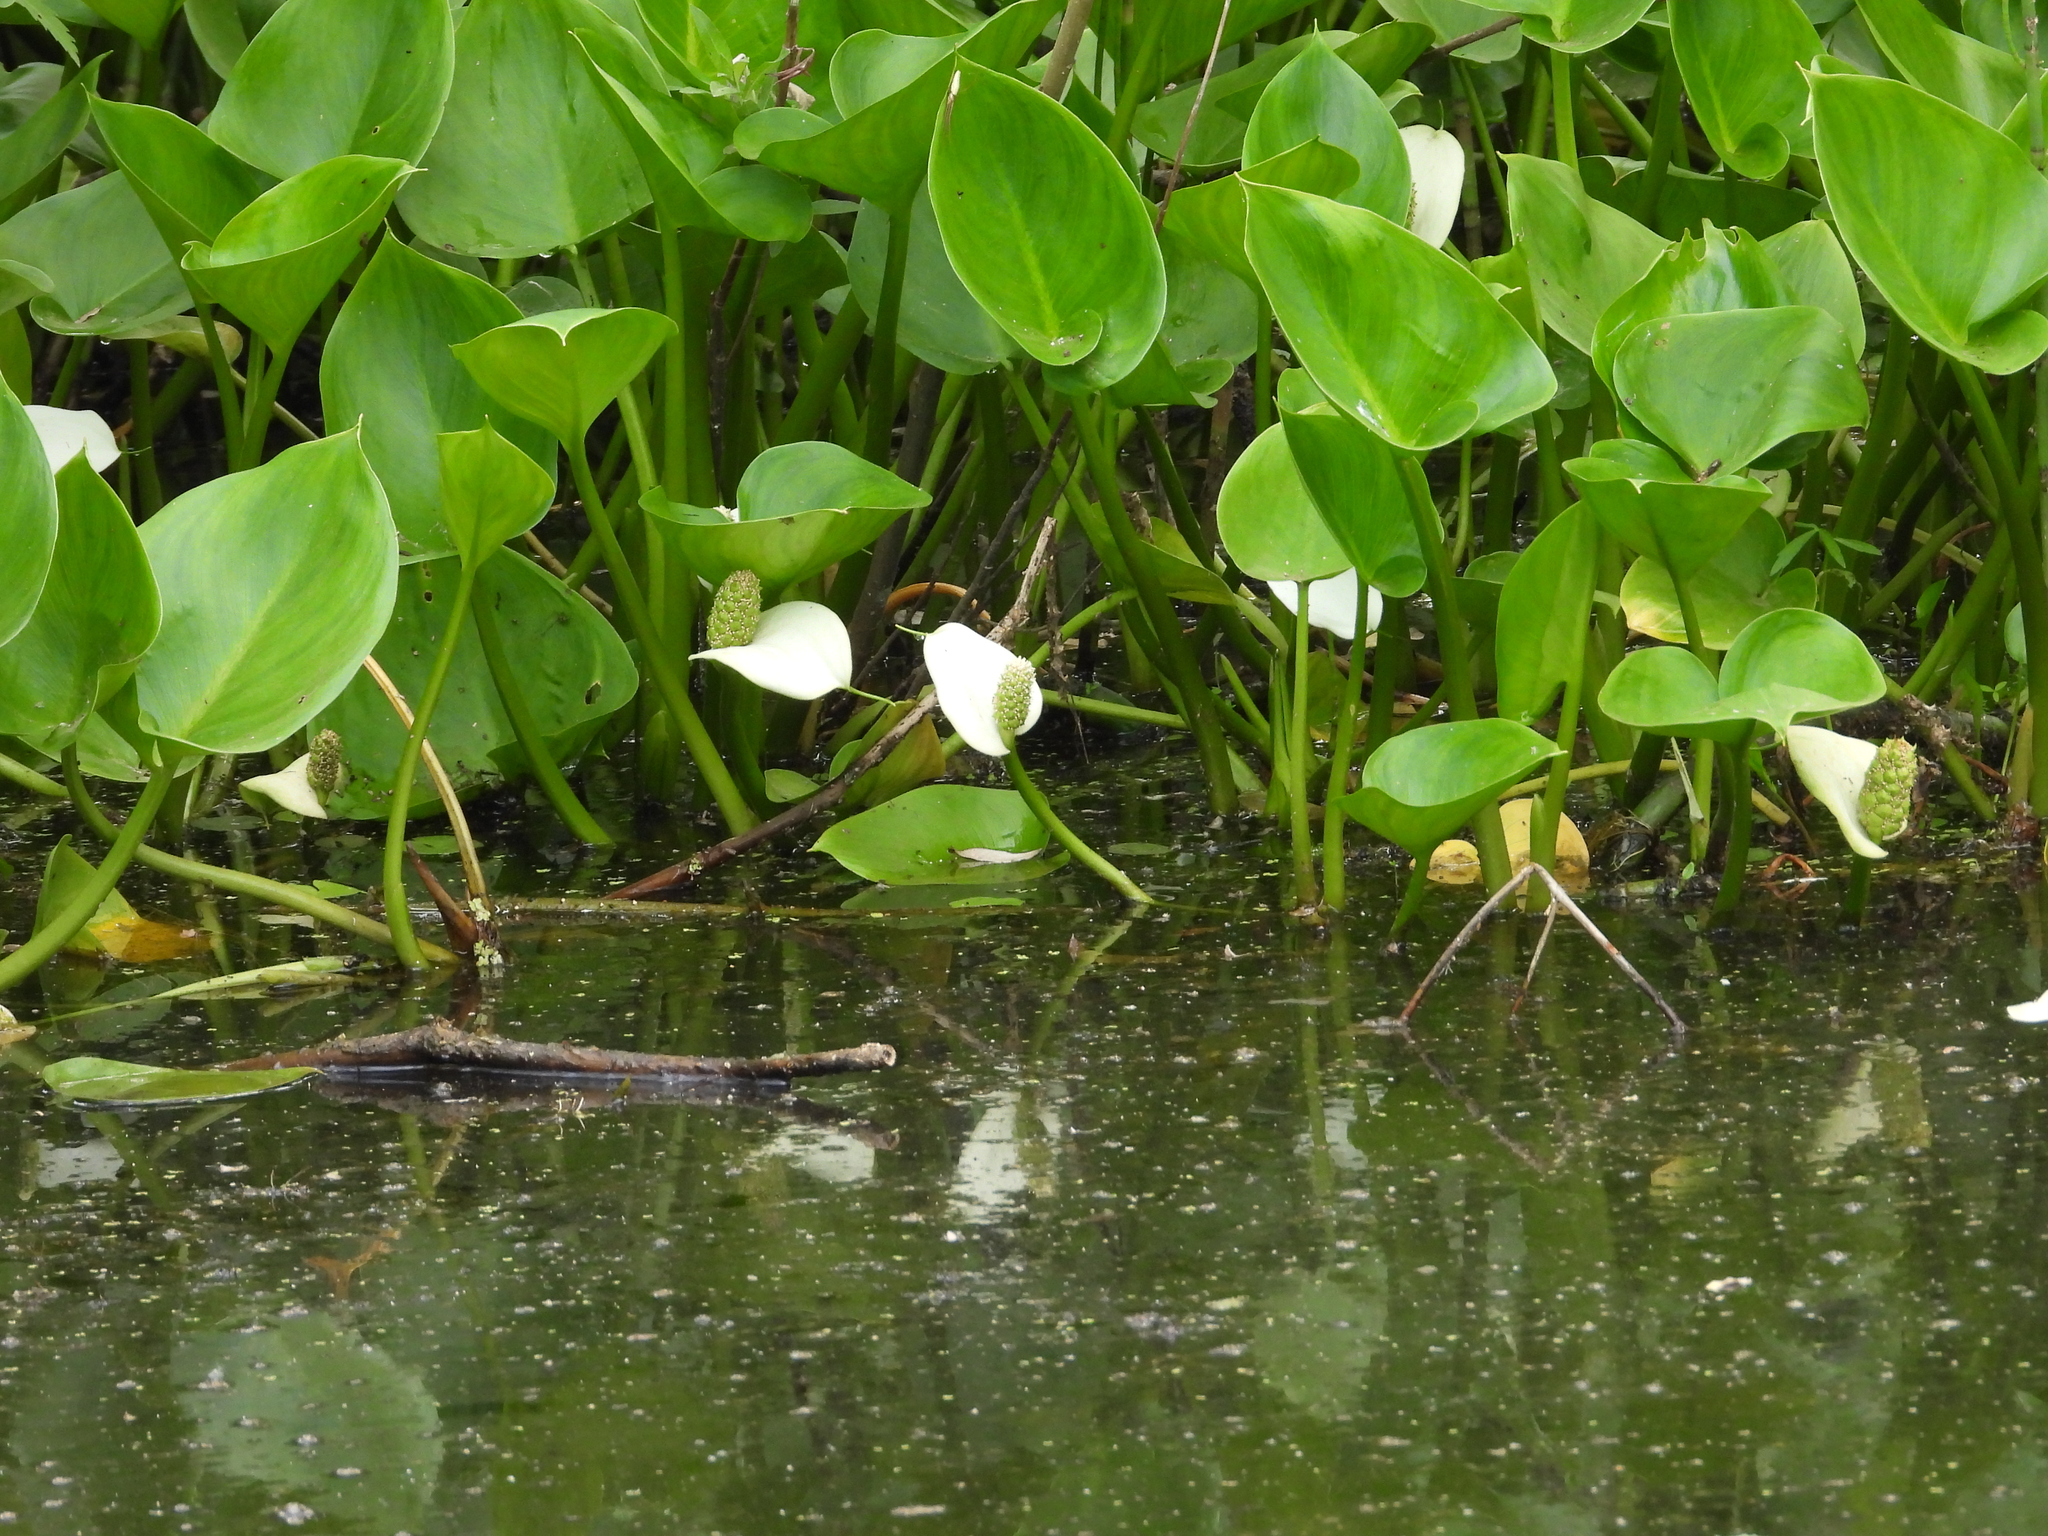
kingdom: Plantae
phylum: Tracheophyta
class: Liliopsida
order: Alismatales
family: Araceae
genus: Calla
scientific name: Calla palustris
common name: Bog arum
